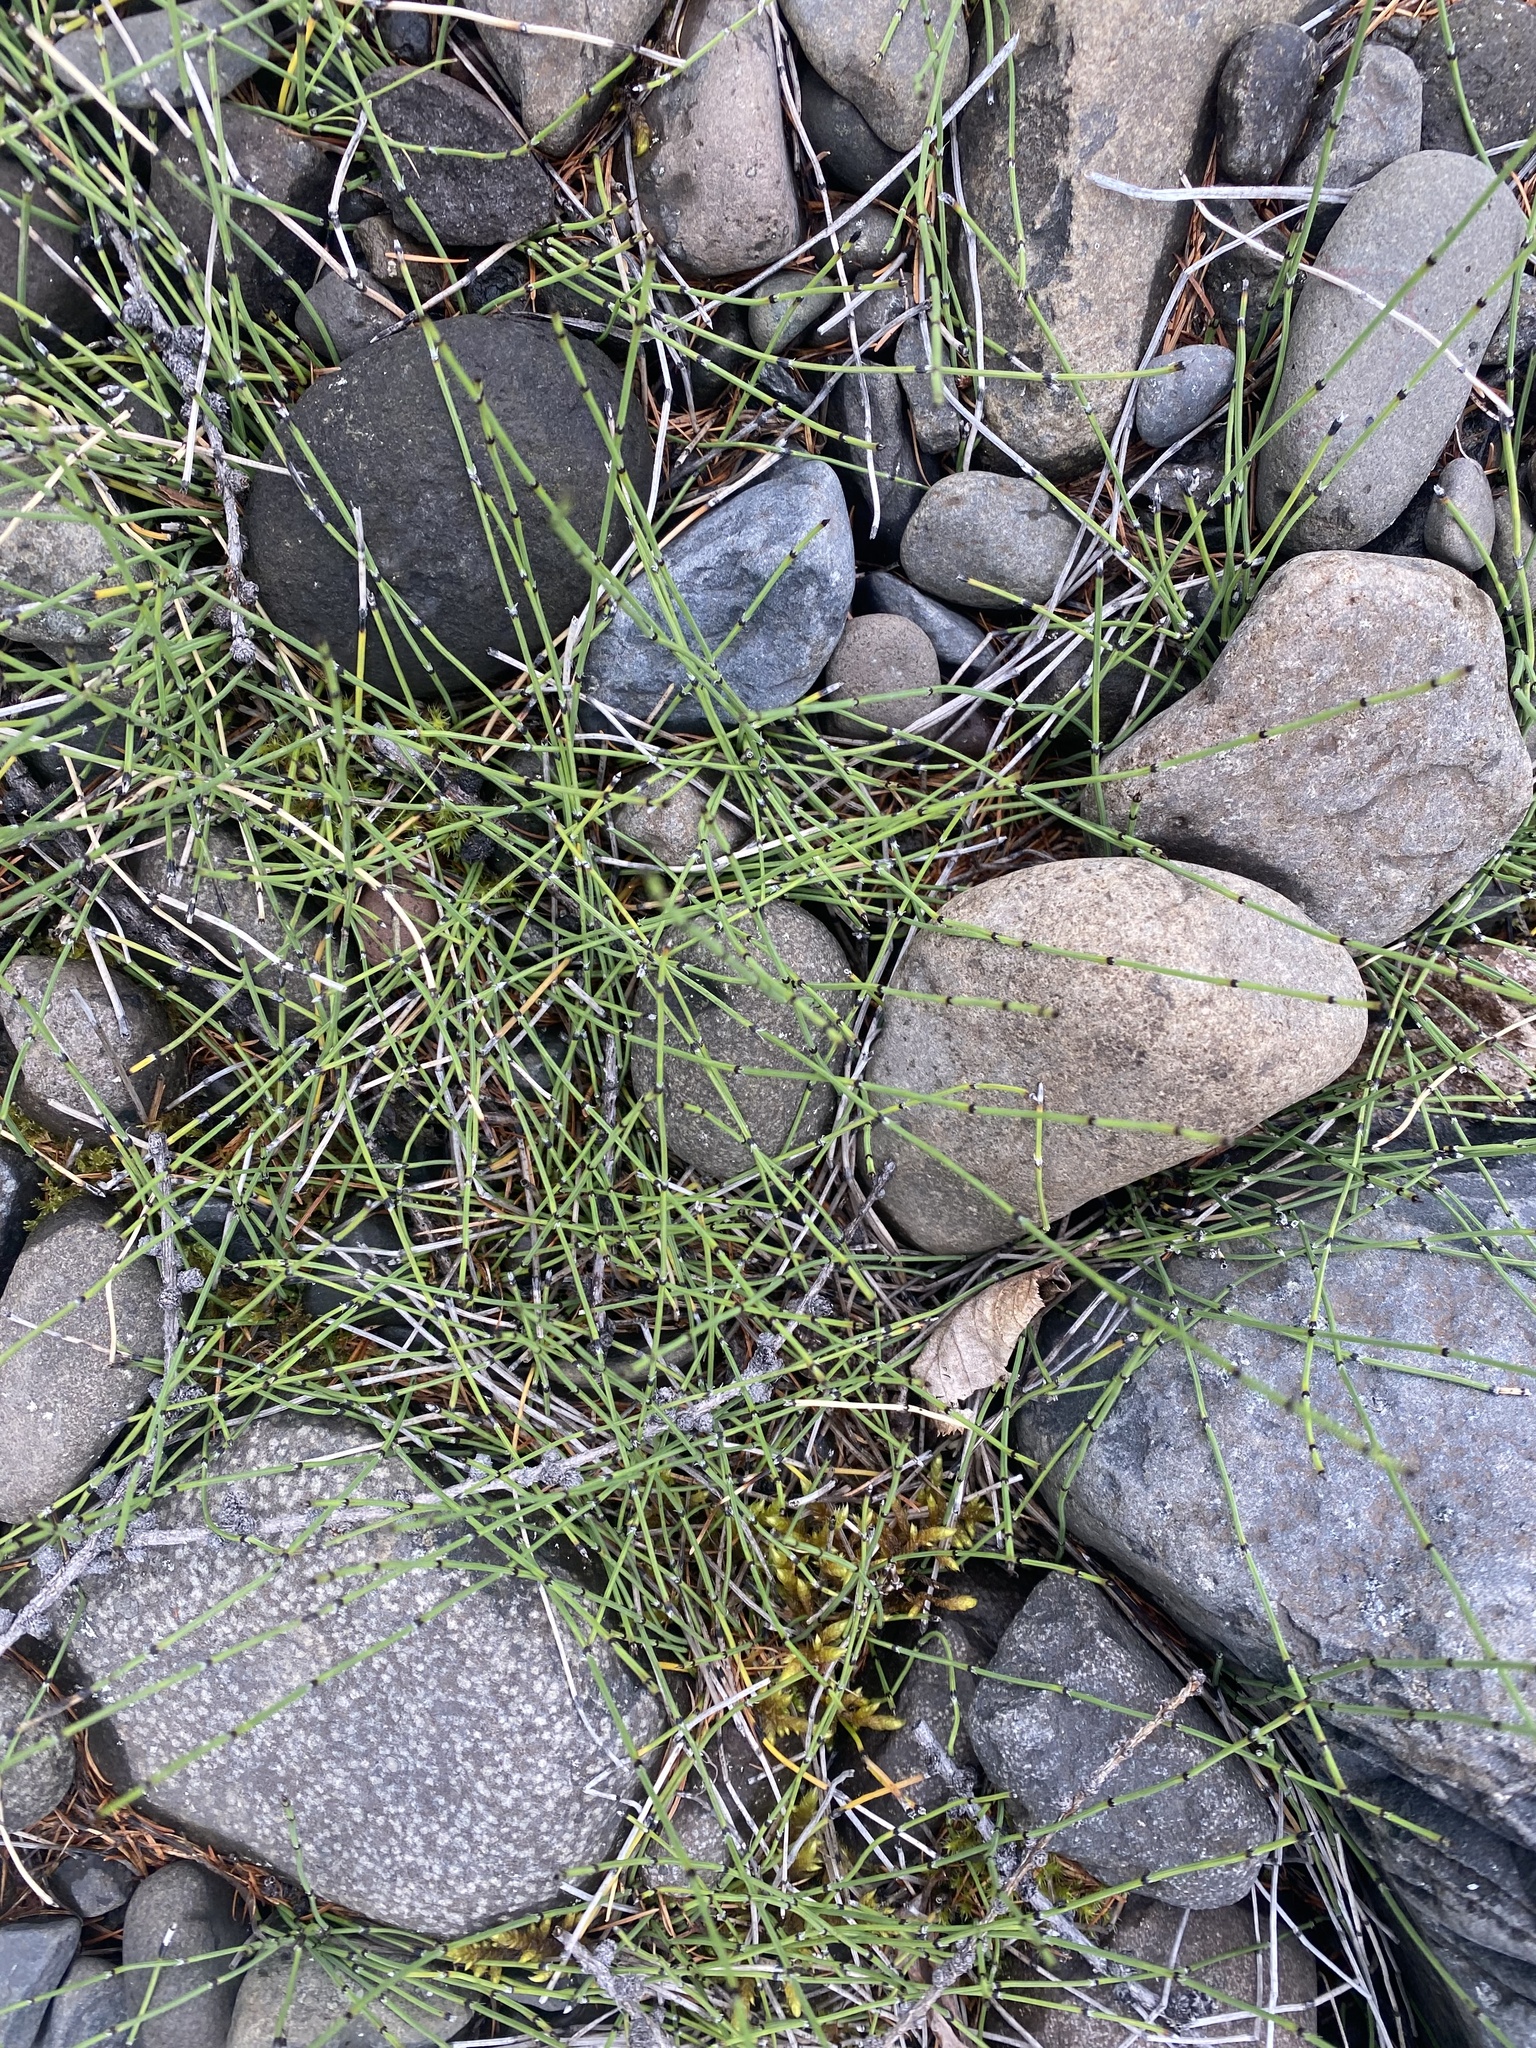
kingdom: Plantae
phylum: Tracheophyta
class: Polypodiopsida
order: Equisetales
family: Equisetaceae
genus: Equisetum
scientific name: Equisetum variegatum
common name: Variegated horsetail
